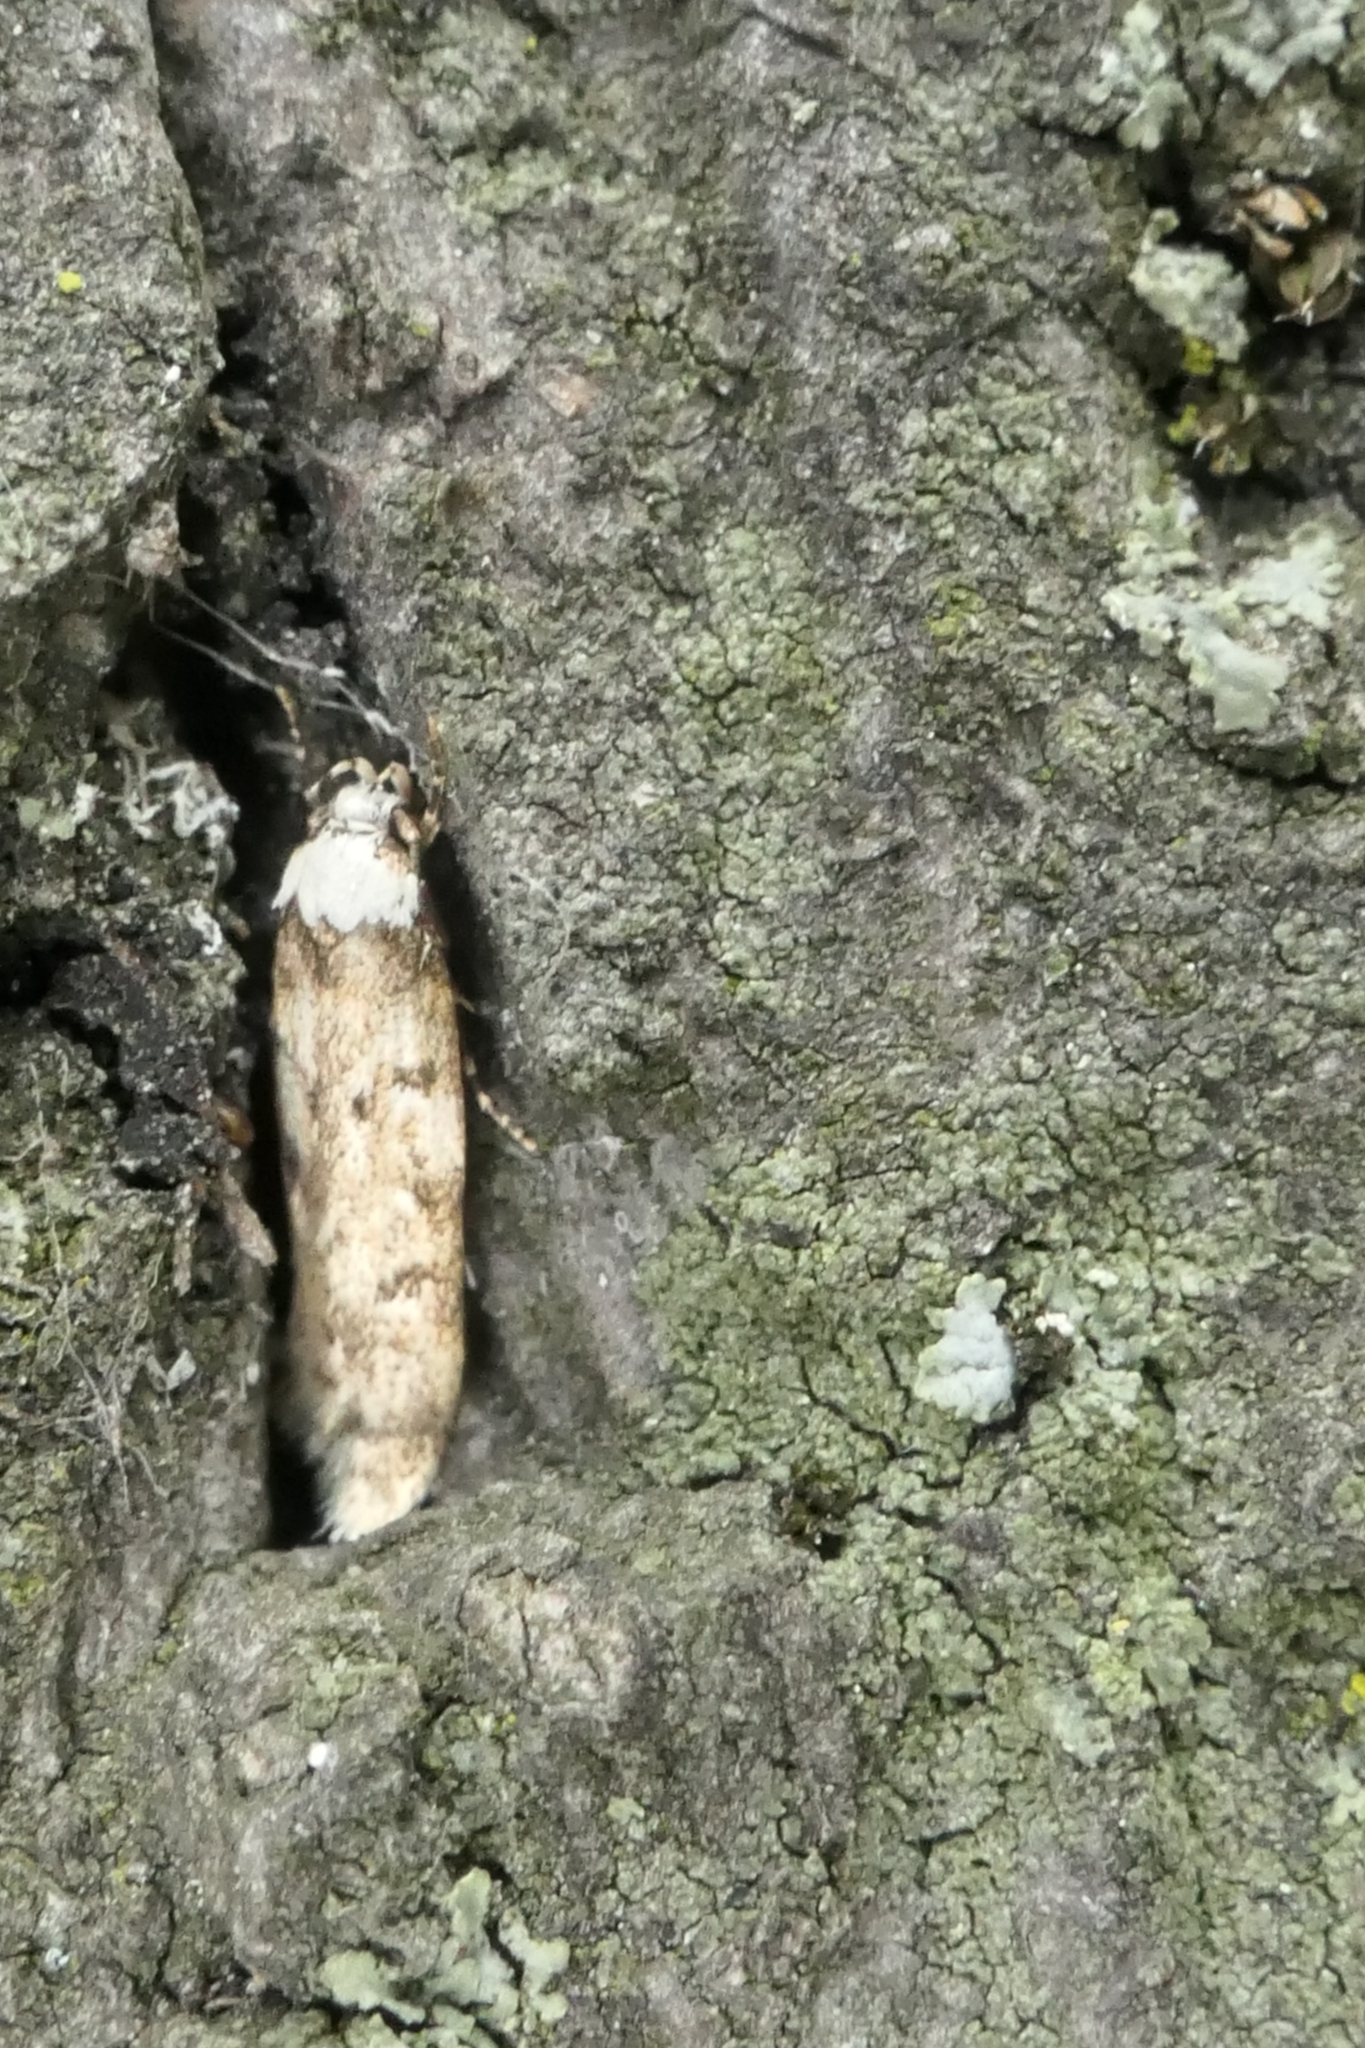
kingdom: Animalia
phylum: Arthropoda
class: Insecta
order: Lepidoptera
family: Oecophoridae
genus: Endrosis
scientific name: Endrosis sarcitrella
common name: White-shouldered house moth
